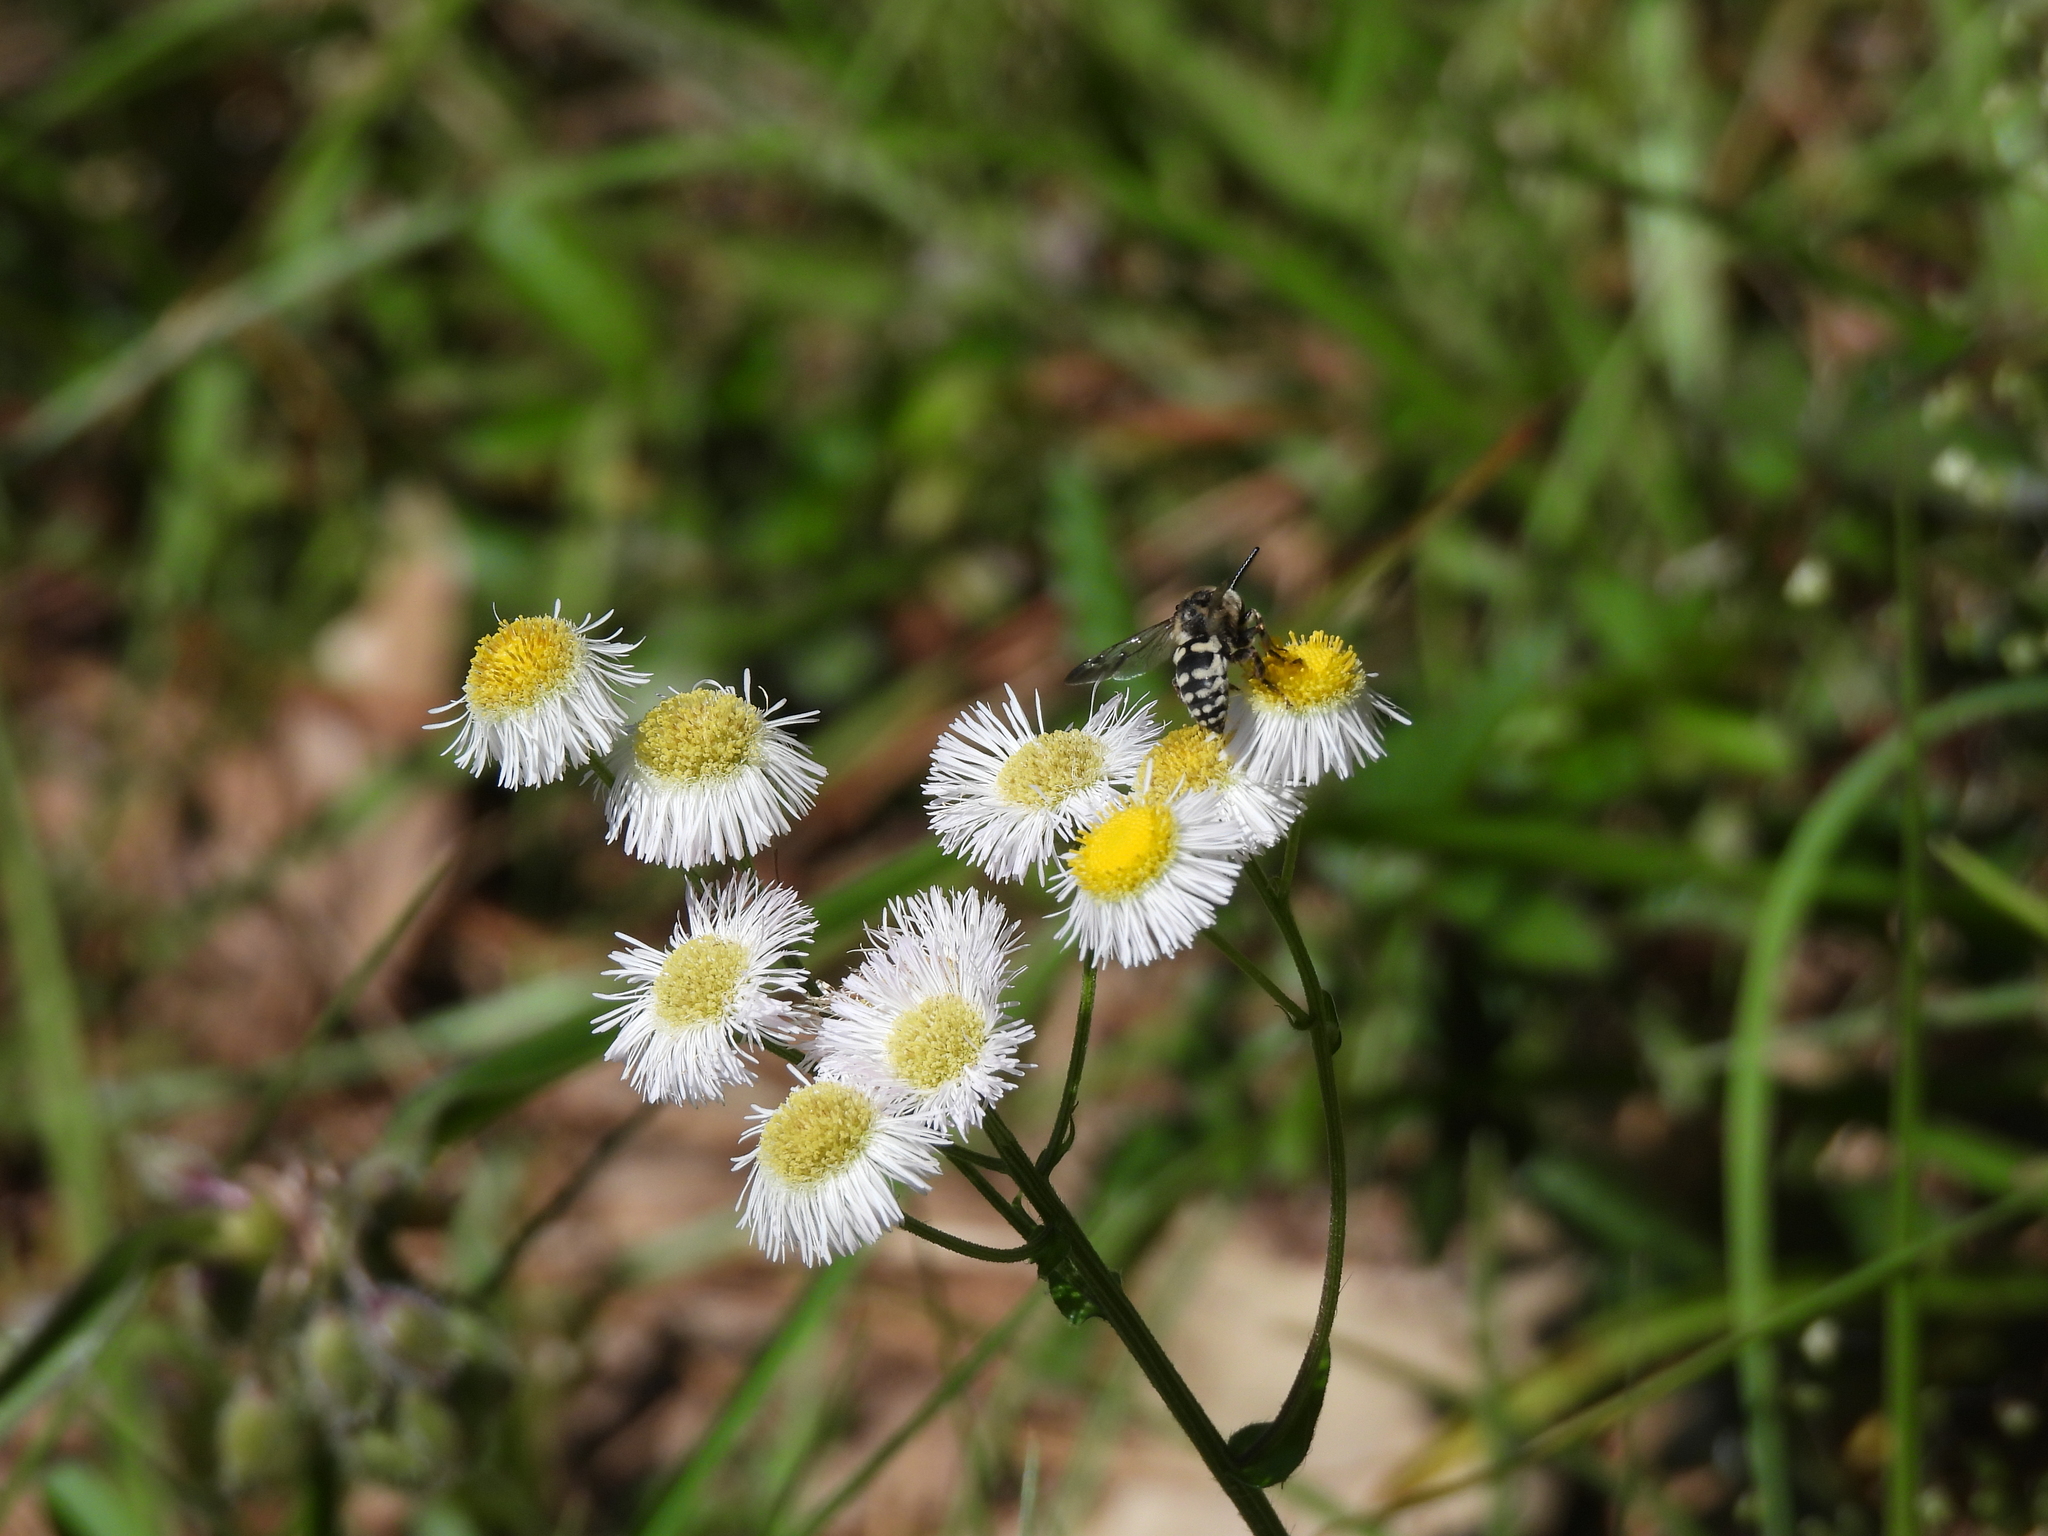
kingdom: Animalia
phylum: Arthropoda
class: Insecta
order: Hymenoptera
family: Apidae
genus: Brachymelecta
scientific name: Brachymelecta californica
